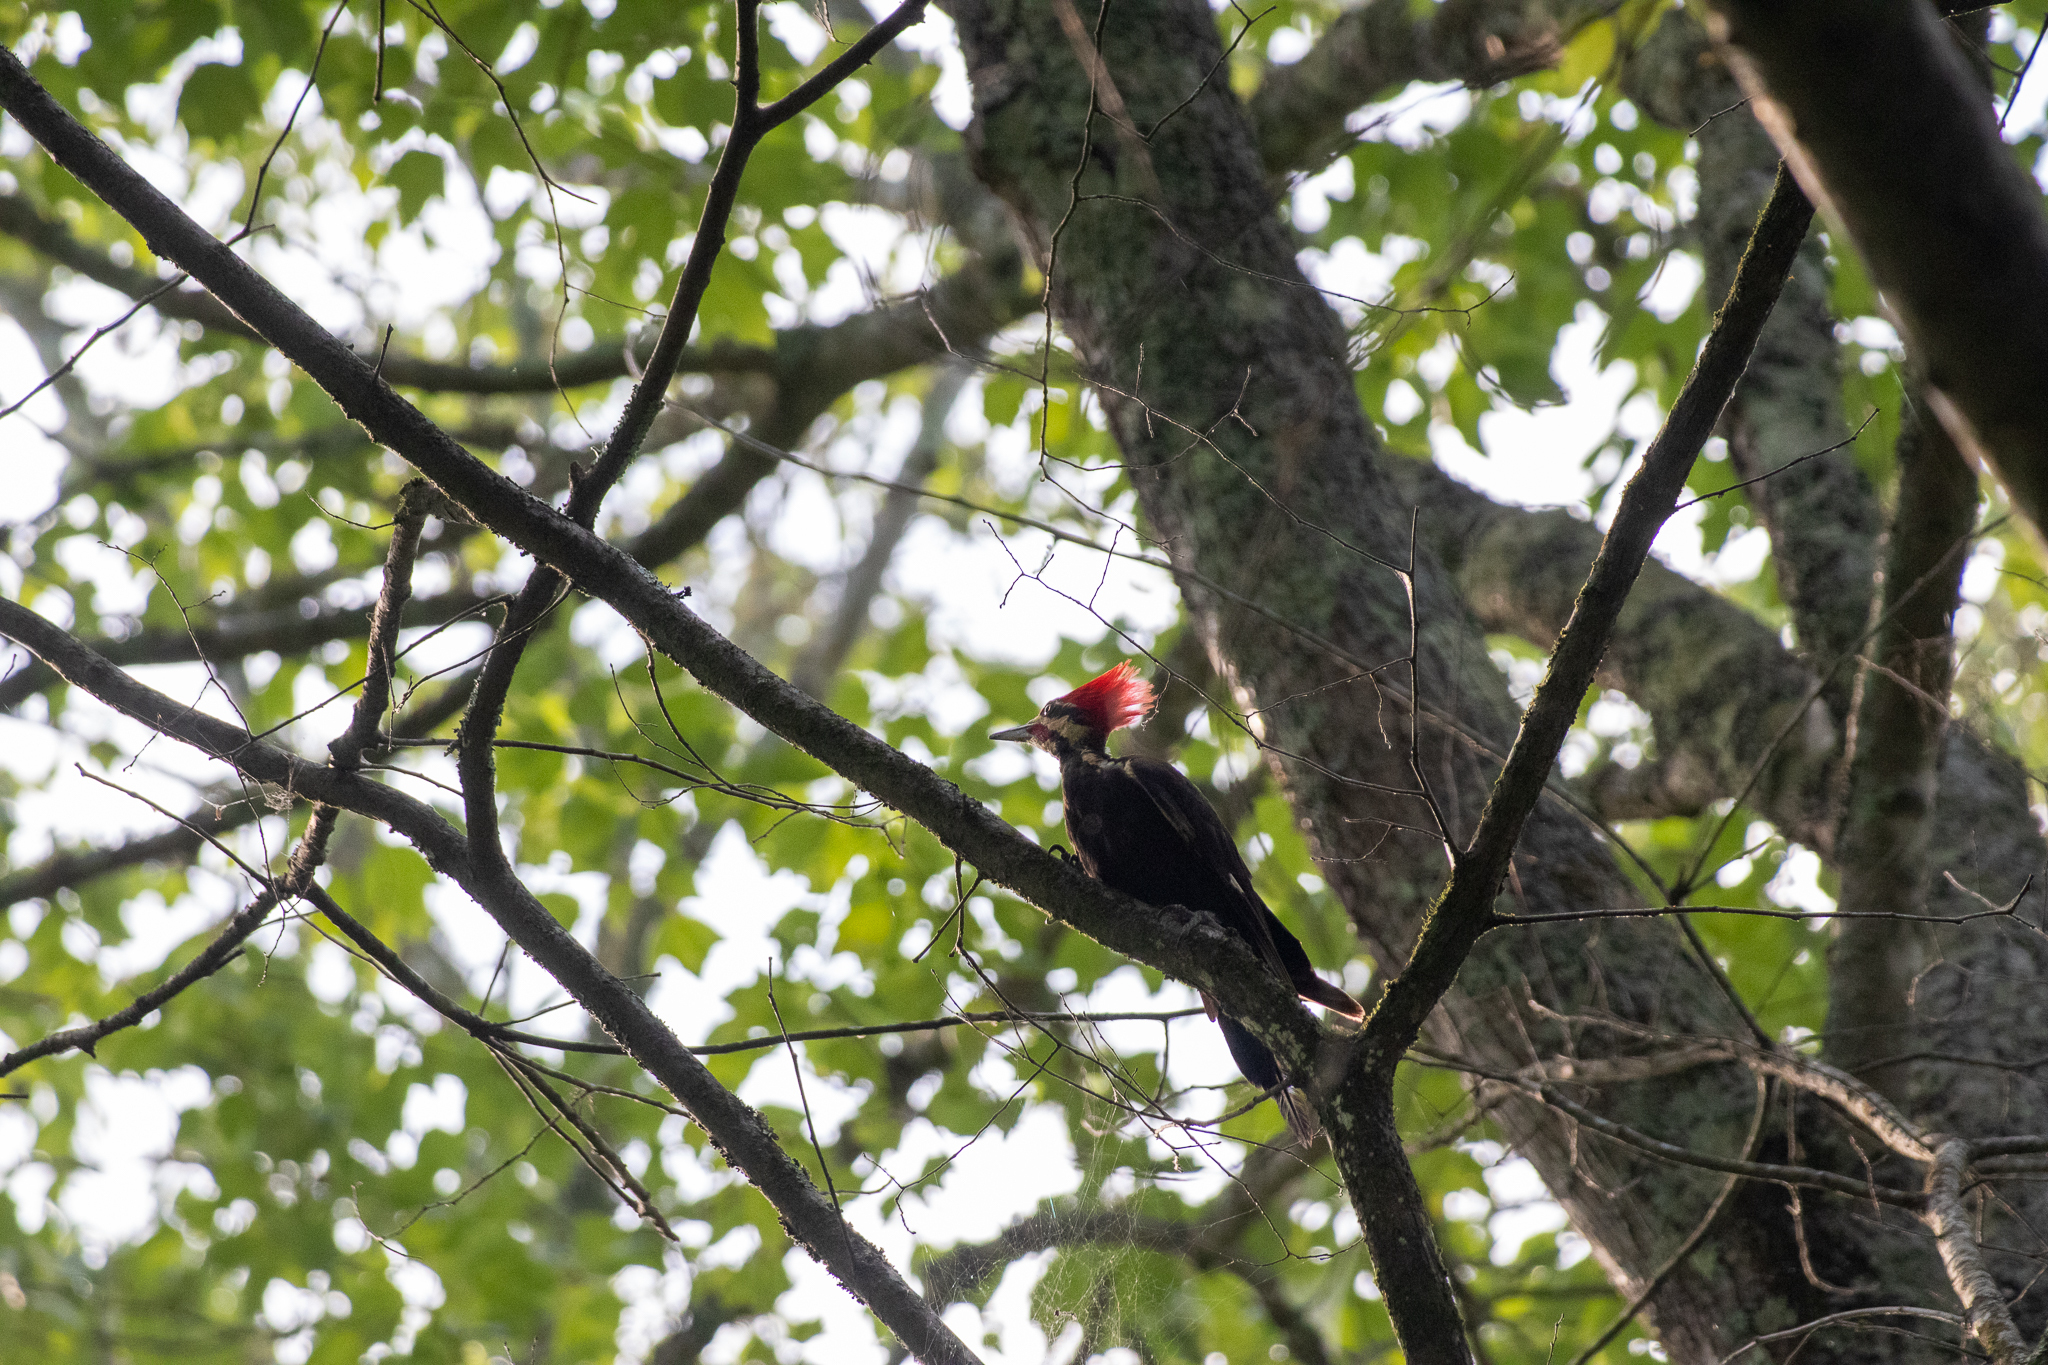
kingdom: Animalia
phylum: Chordata
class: Aves
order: Piciformes
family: Picidae
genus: Dryocopus
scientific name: Dryocopus pileatus
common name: Pileated woodpecker
